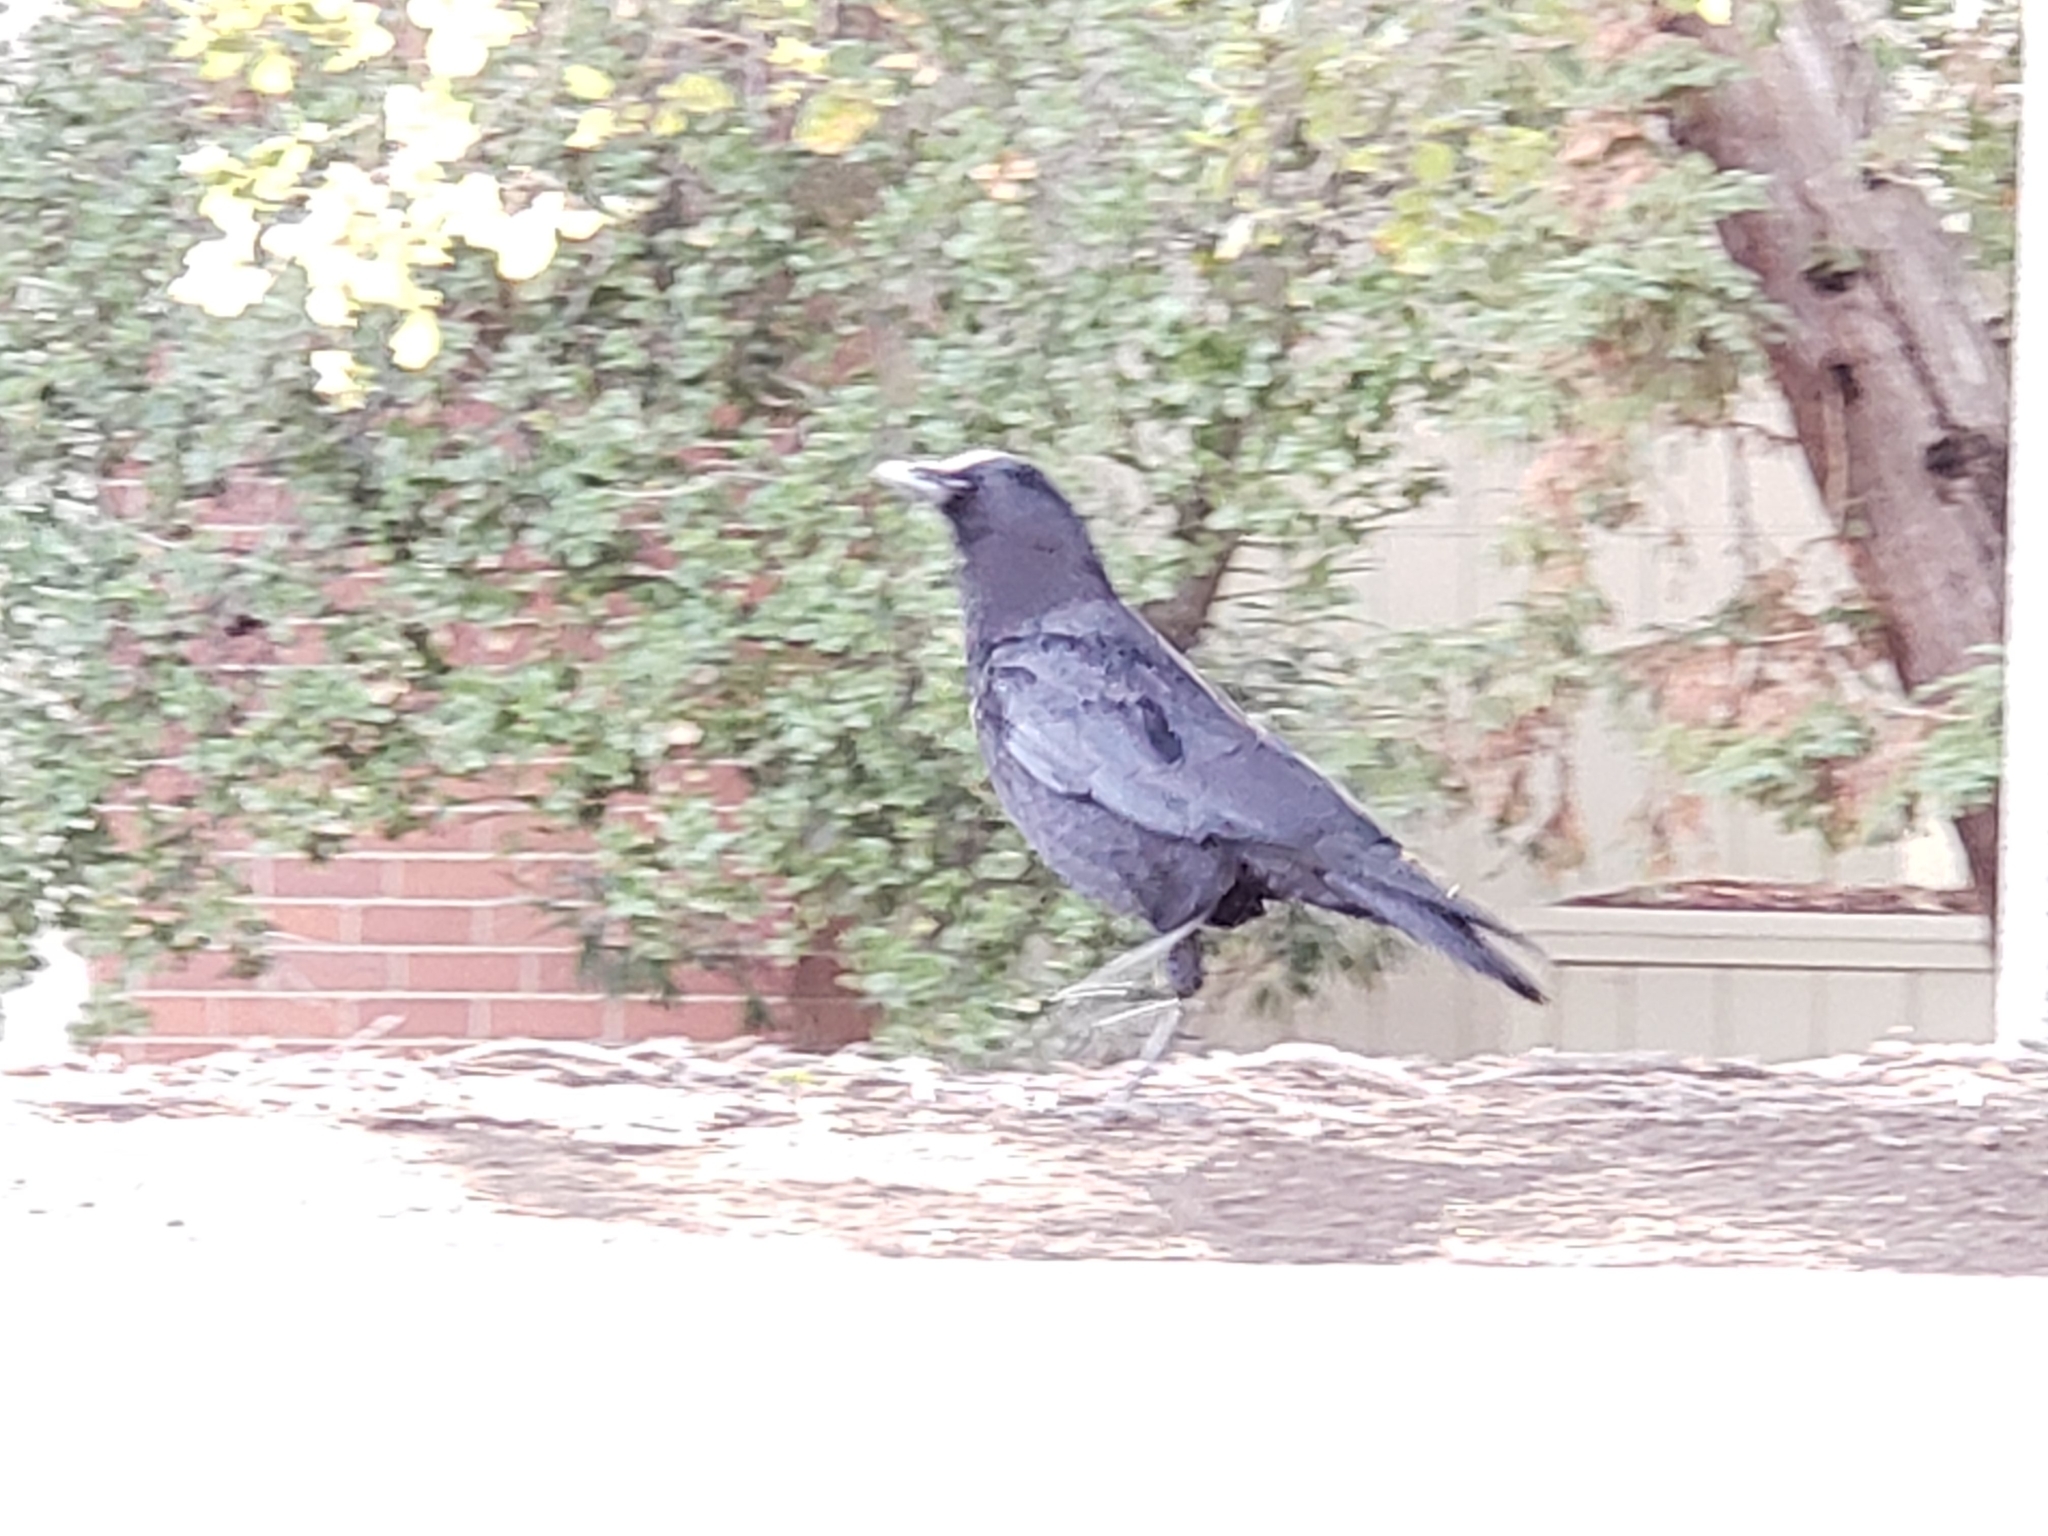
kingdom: Animalia
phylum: Chordata
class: Aves
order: Passeriformes
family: Corvidae
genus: Corvus
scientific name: Corvus brachyrhynchos
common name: American crow
